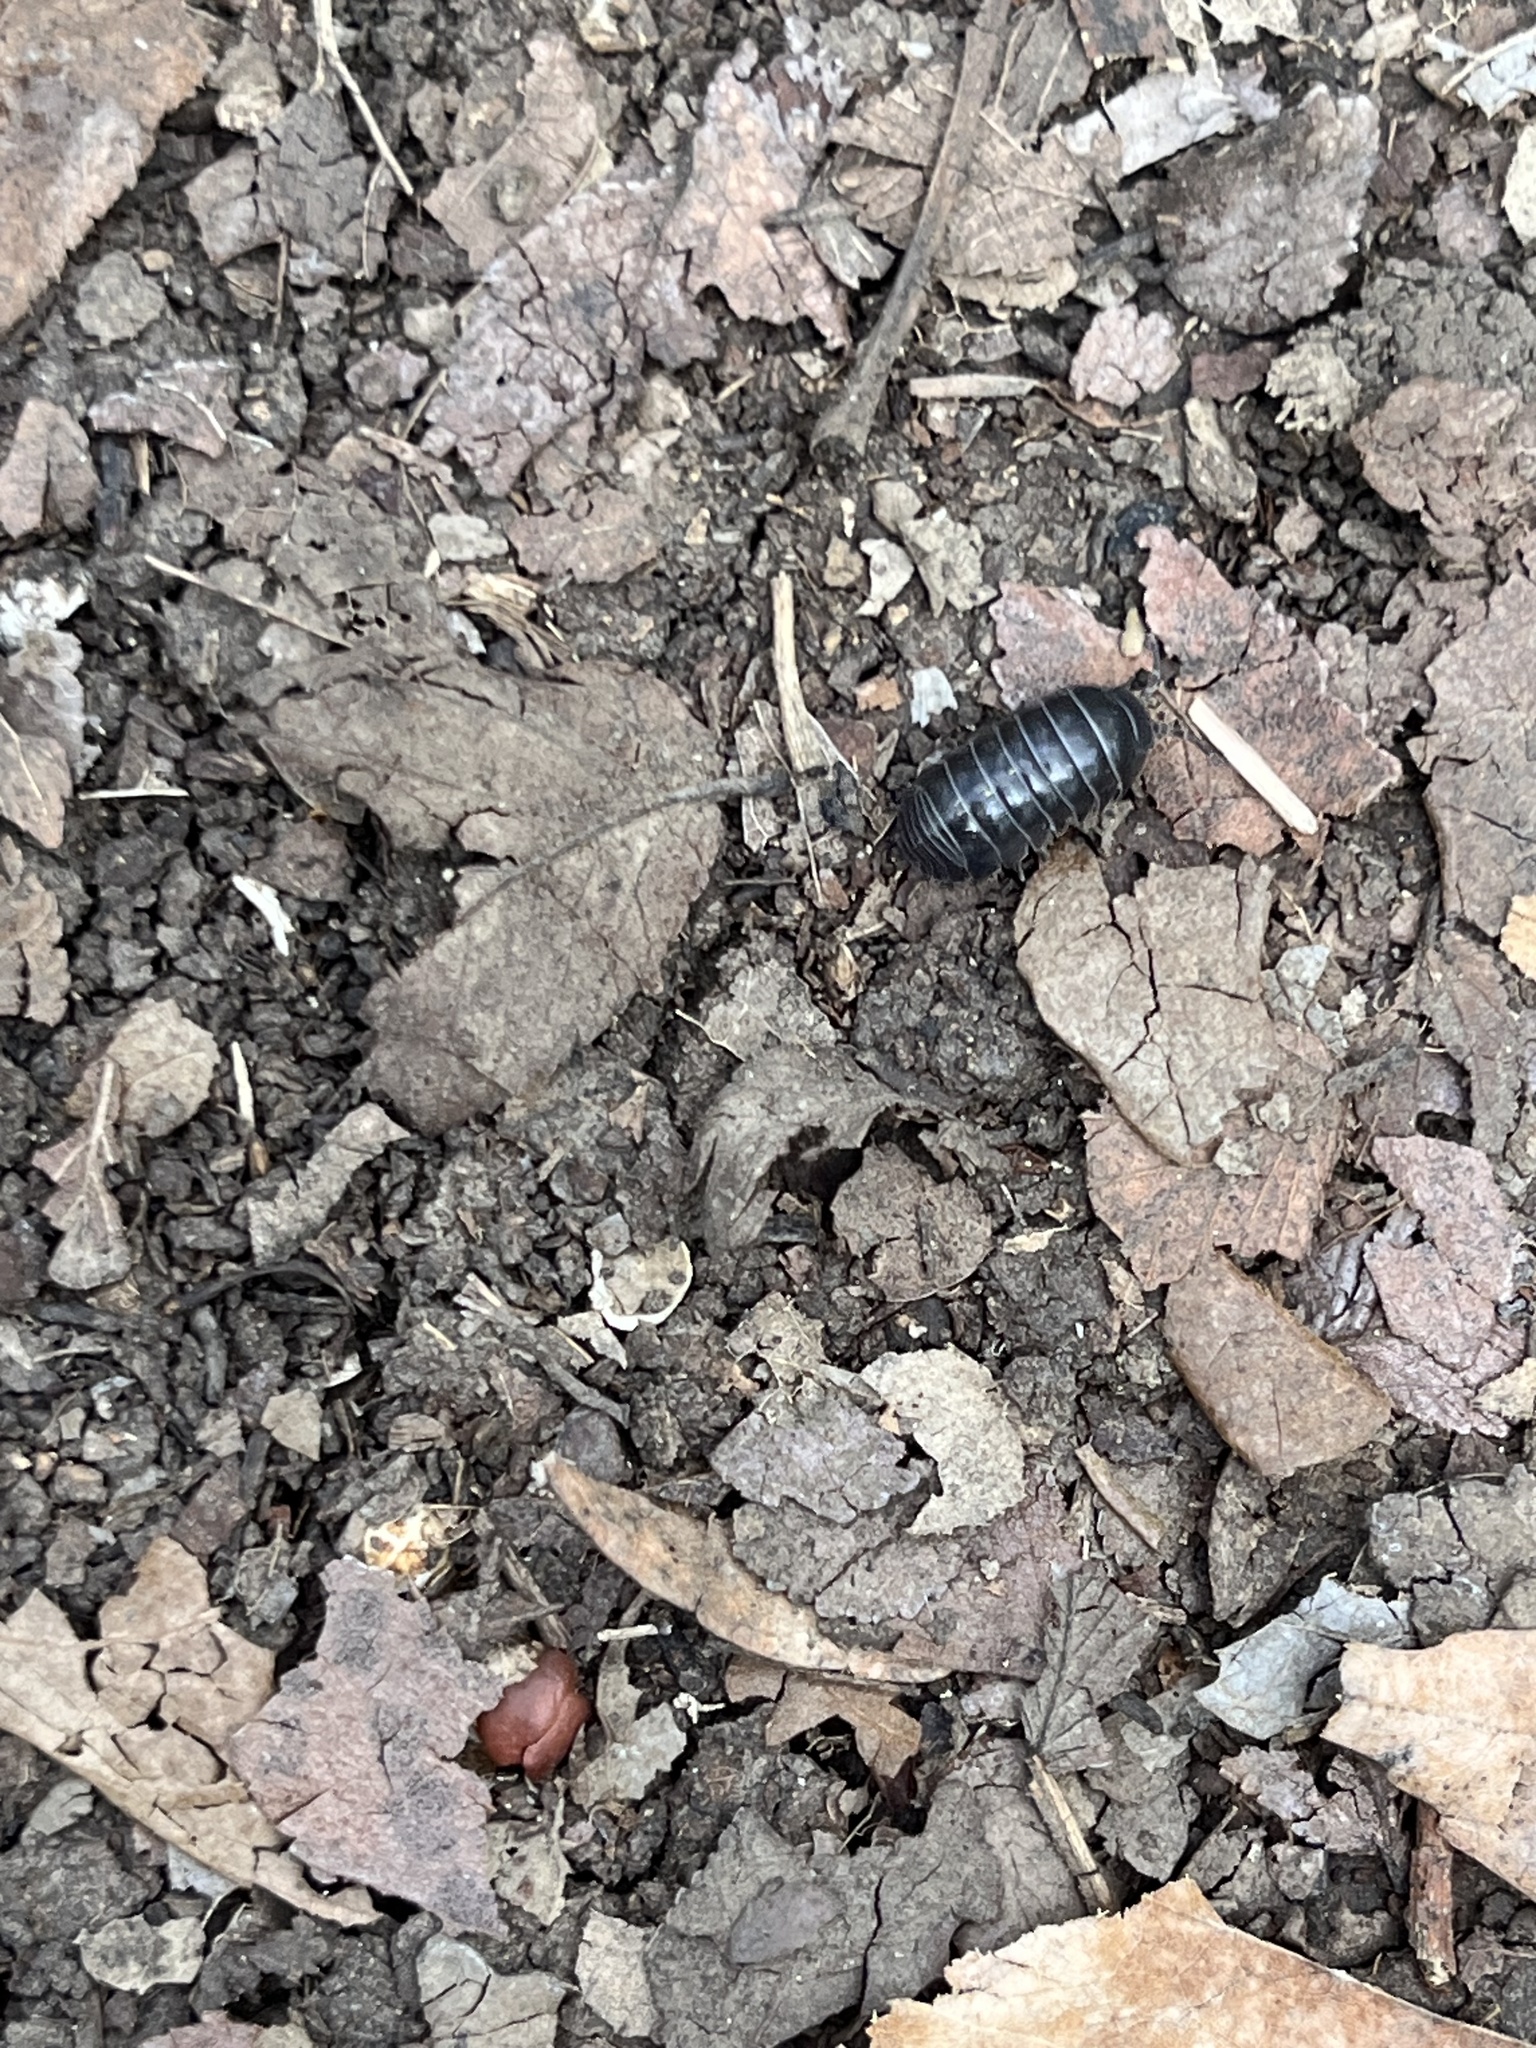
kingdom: Animalia
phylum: Arthropoda
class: Malacostraca
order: Isopoda
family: Armadillidiidae
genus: Armadillidium
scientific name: Armadillidium vulgare
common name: Common pill woodlouse
